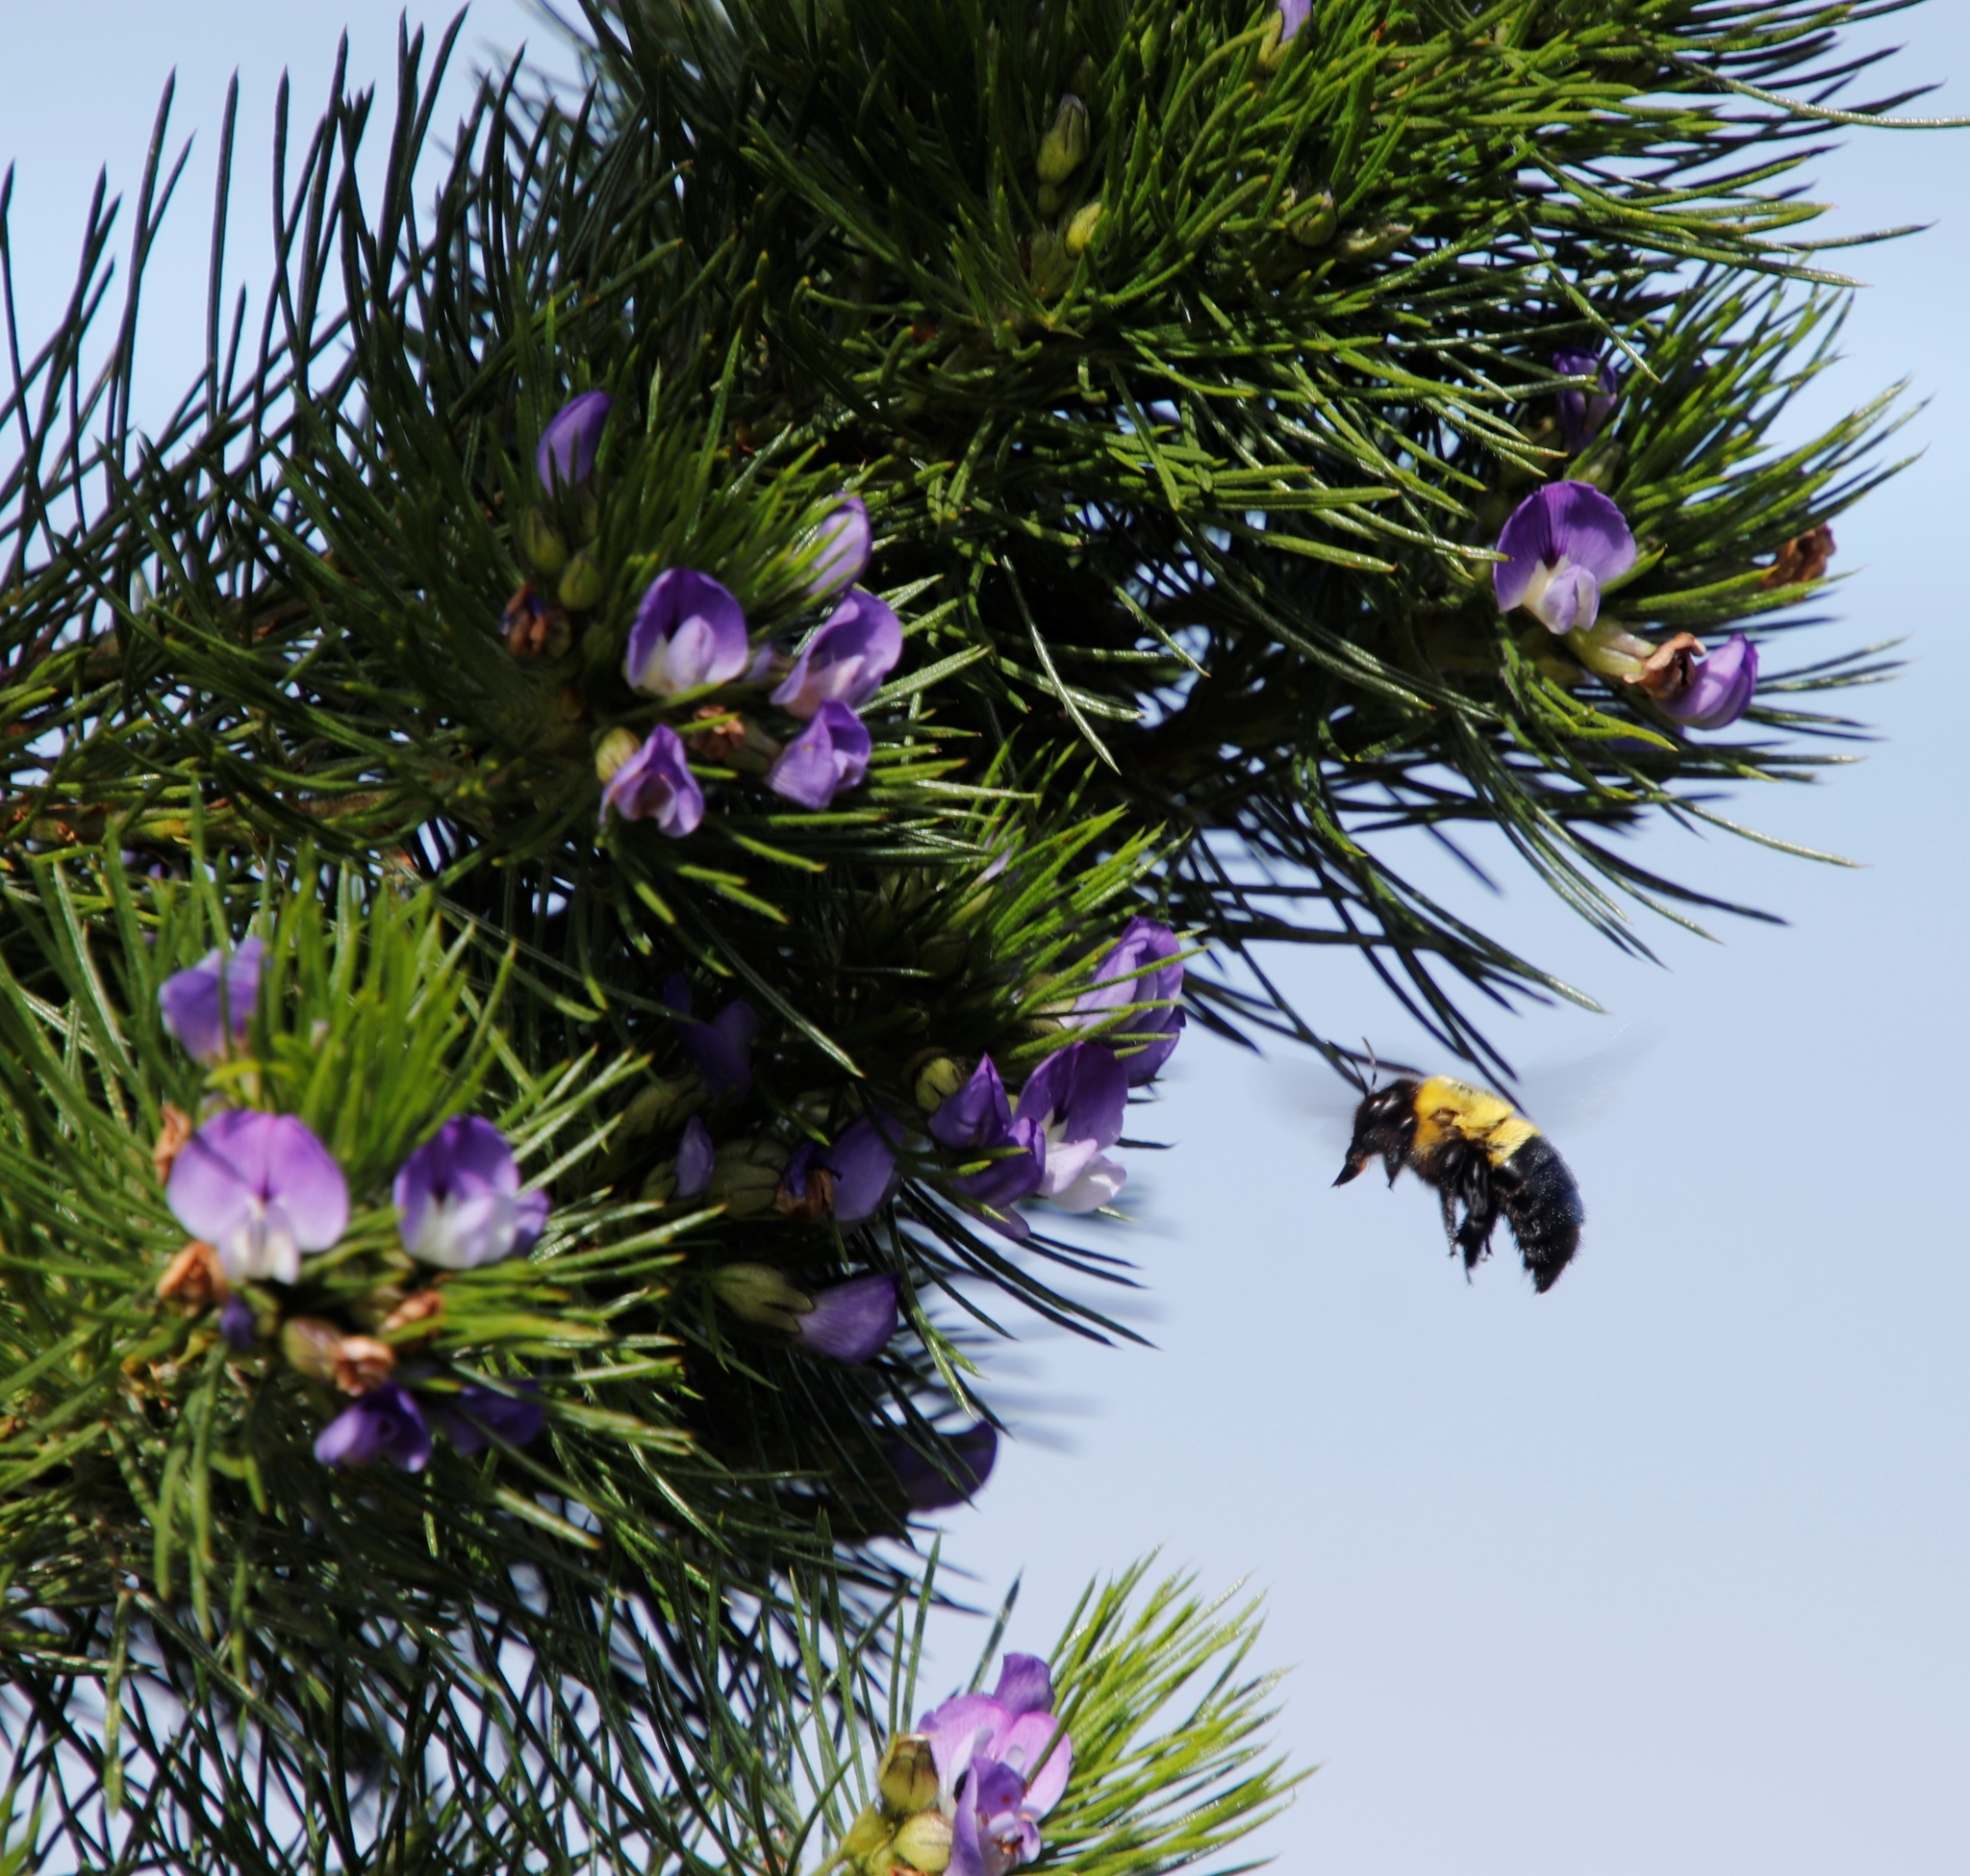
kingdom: Plantae
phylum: Tracheophyta
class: Magnoliopsida
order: Fabales
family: Fabaceae
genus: Psoralea
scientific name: Psoralea pinnata
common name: African scurfpea
